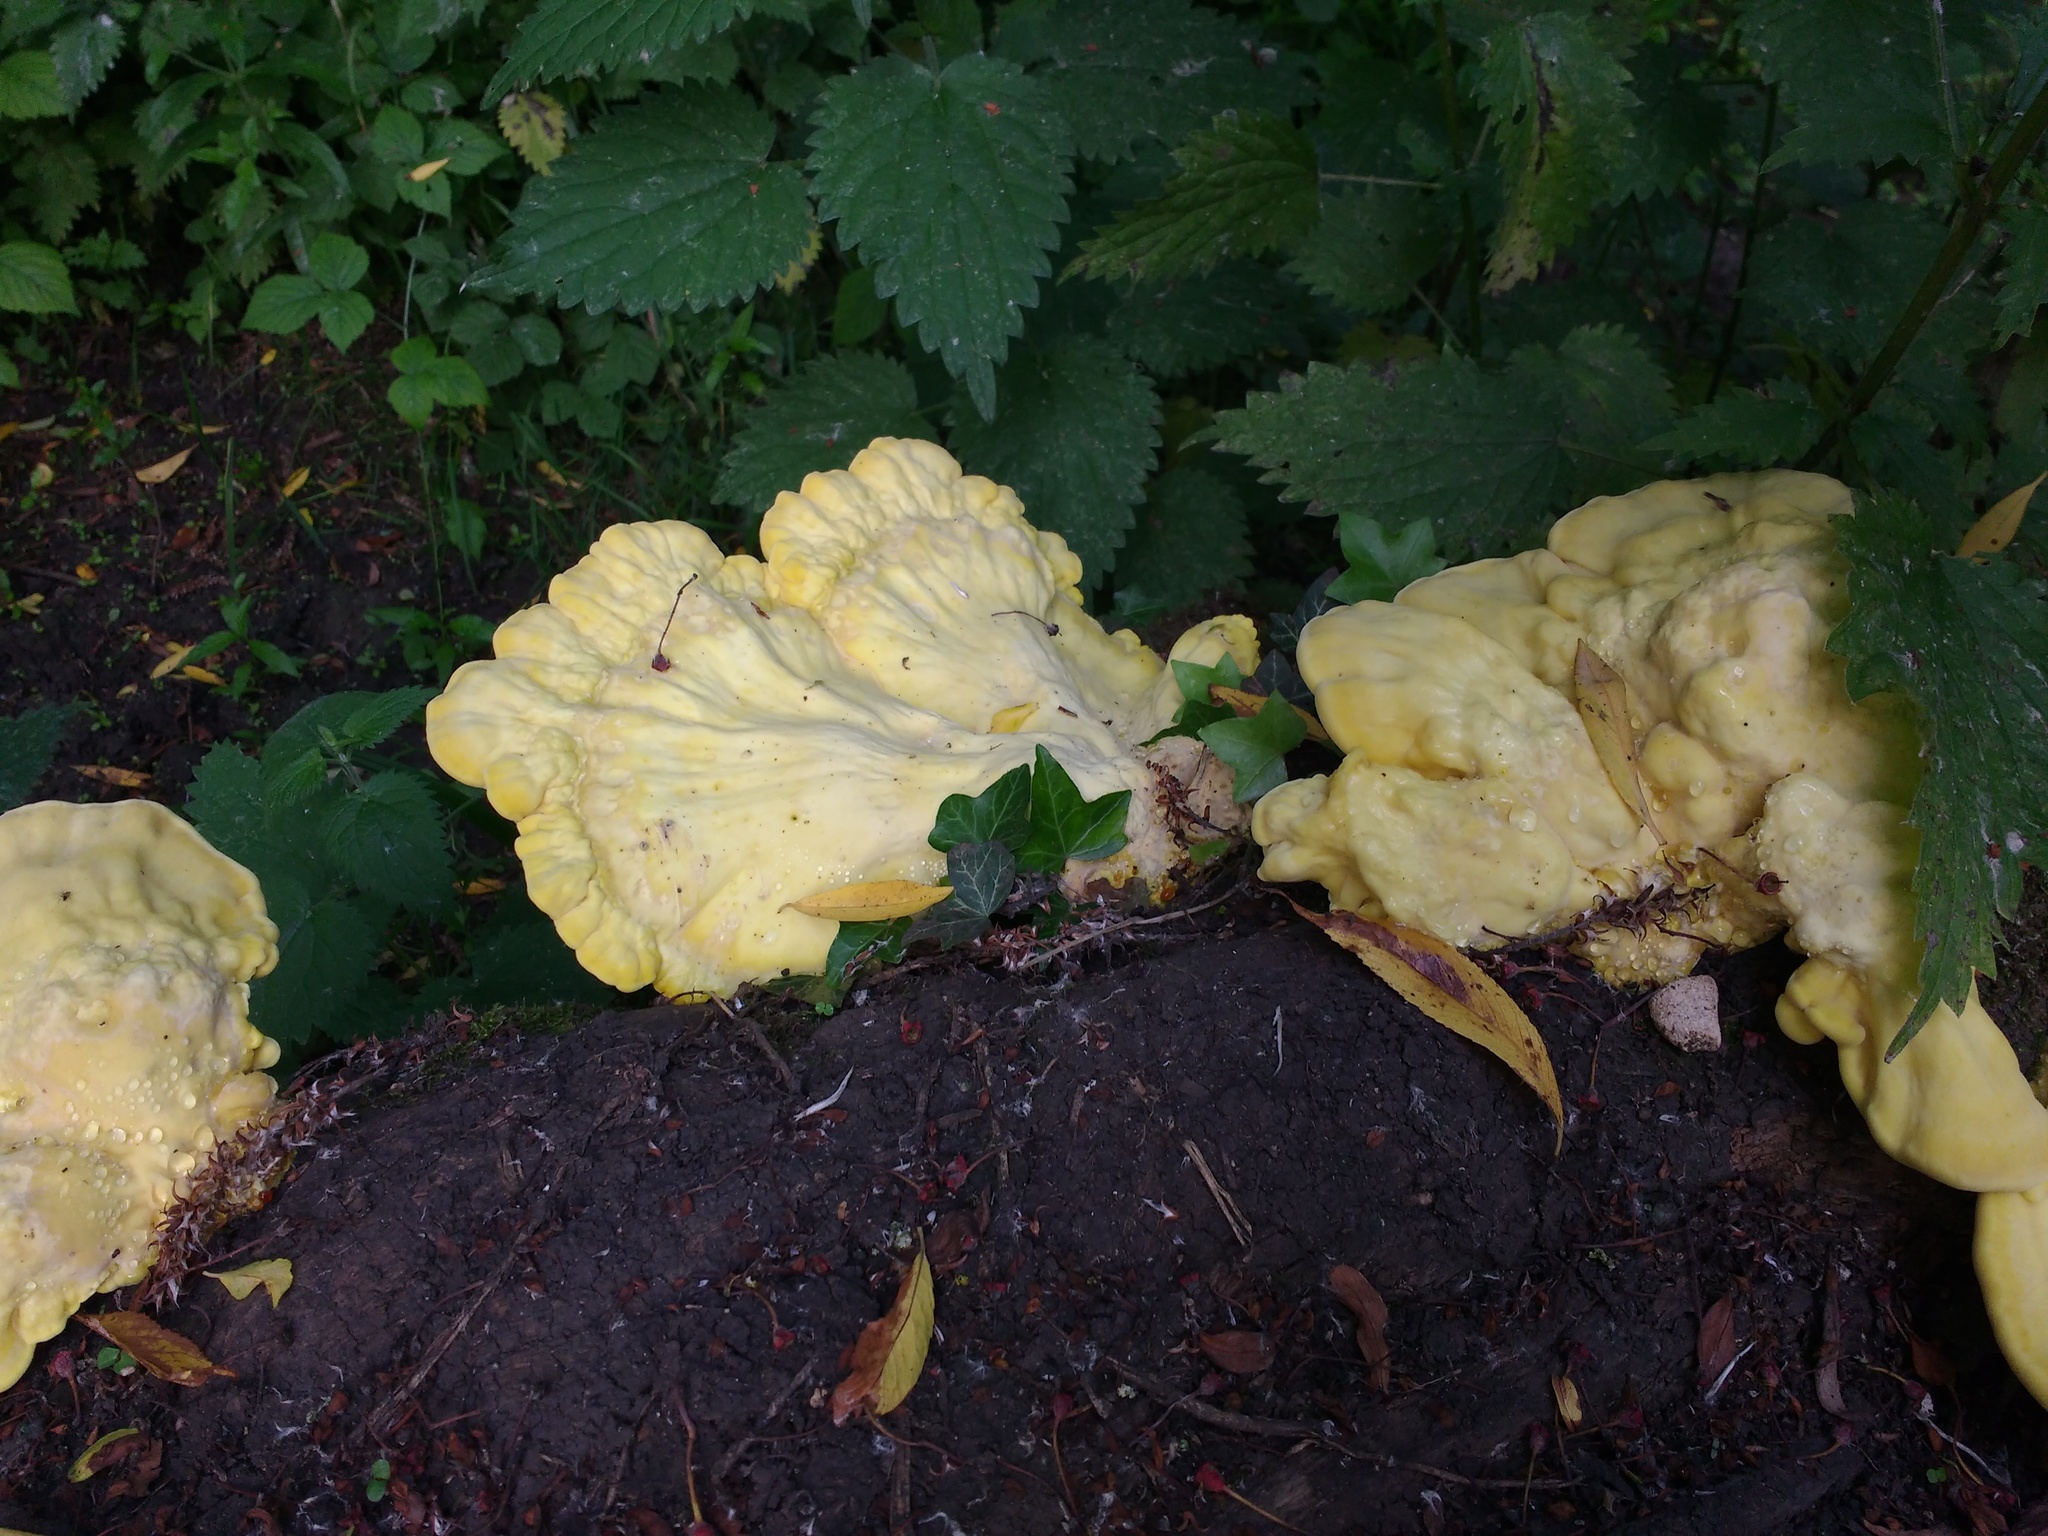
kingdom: Fungi
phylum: Basidiomycota
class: Agaricomycetes
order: Polyporales
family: Laetiporaceae
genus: Laetiporus
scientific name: Laetiporus sulphureus
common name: Chicken of the woods
